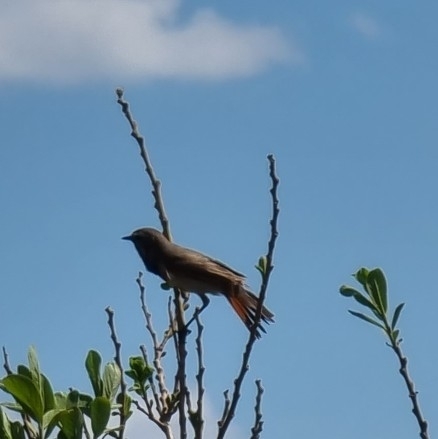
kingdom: Animalia
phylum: Chordata
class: Aves
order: Passeriformes
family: Muscicapidae
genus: Phoenicurus
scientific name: Phoenicurus ochruros
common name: Black redstart
